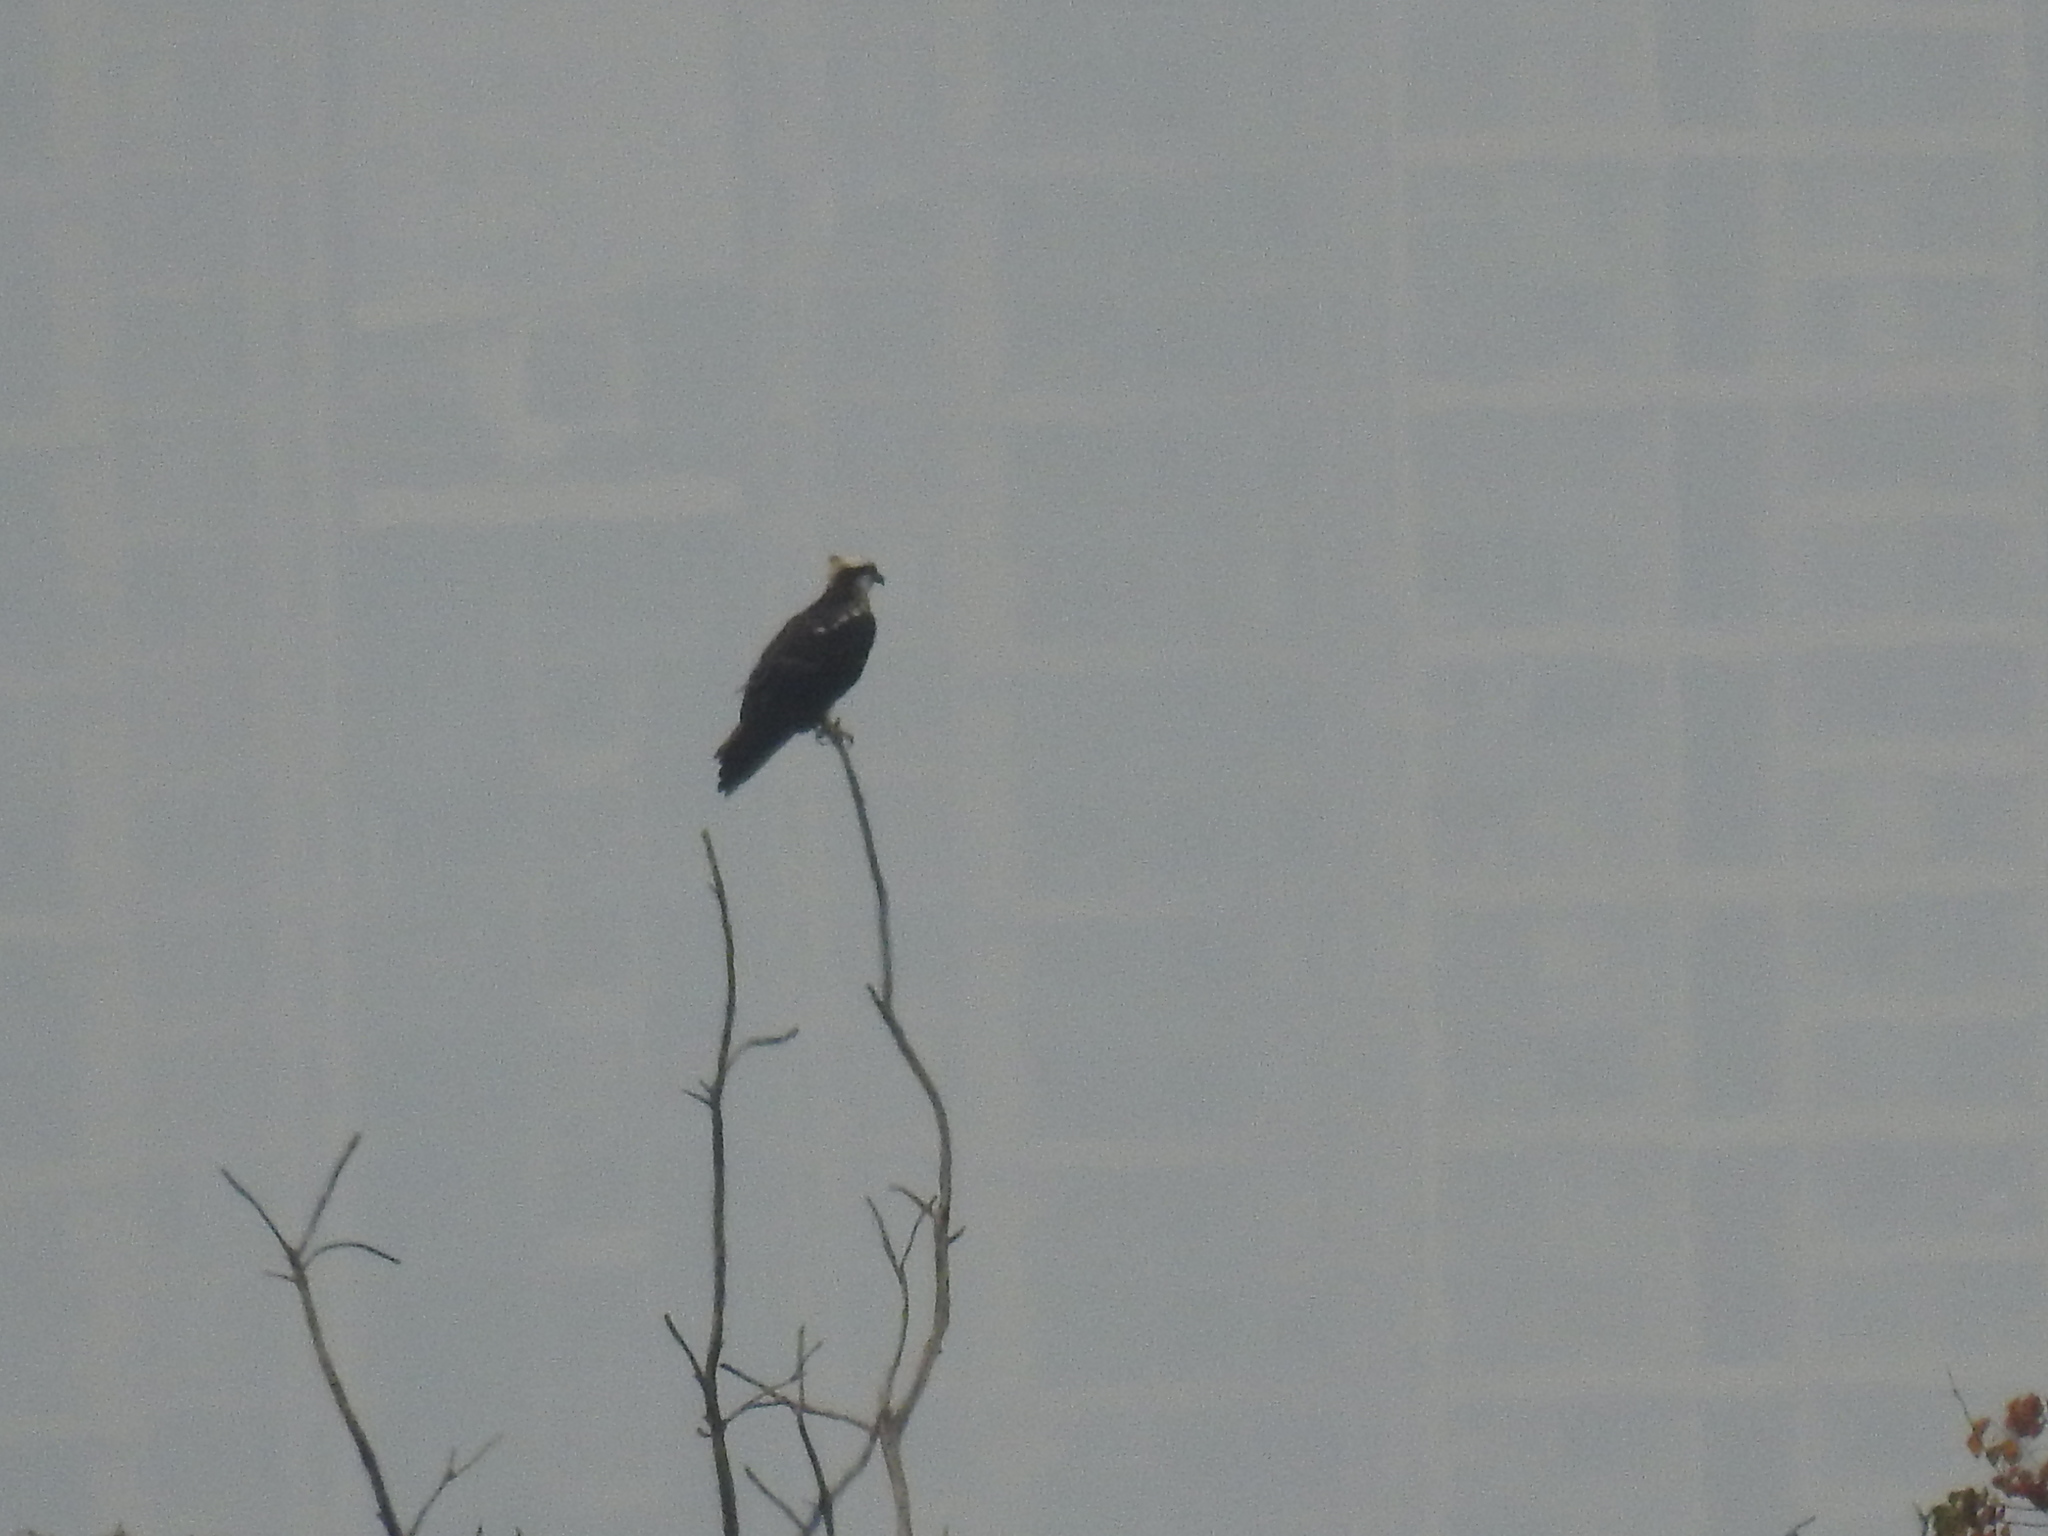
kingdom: Animalia
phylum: Chordata
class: Aves
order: Accipitriformes
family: Pandionidae
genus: Pandion
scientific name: Pandion haliaetus
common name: Osprey
